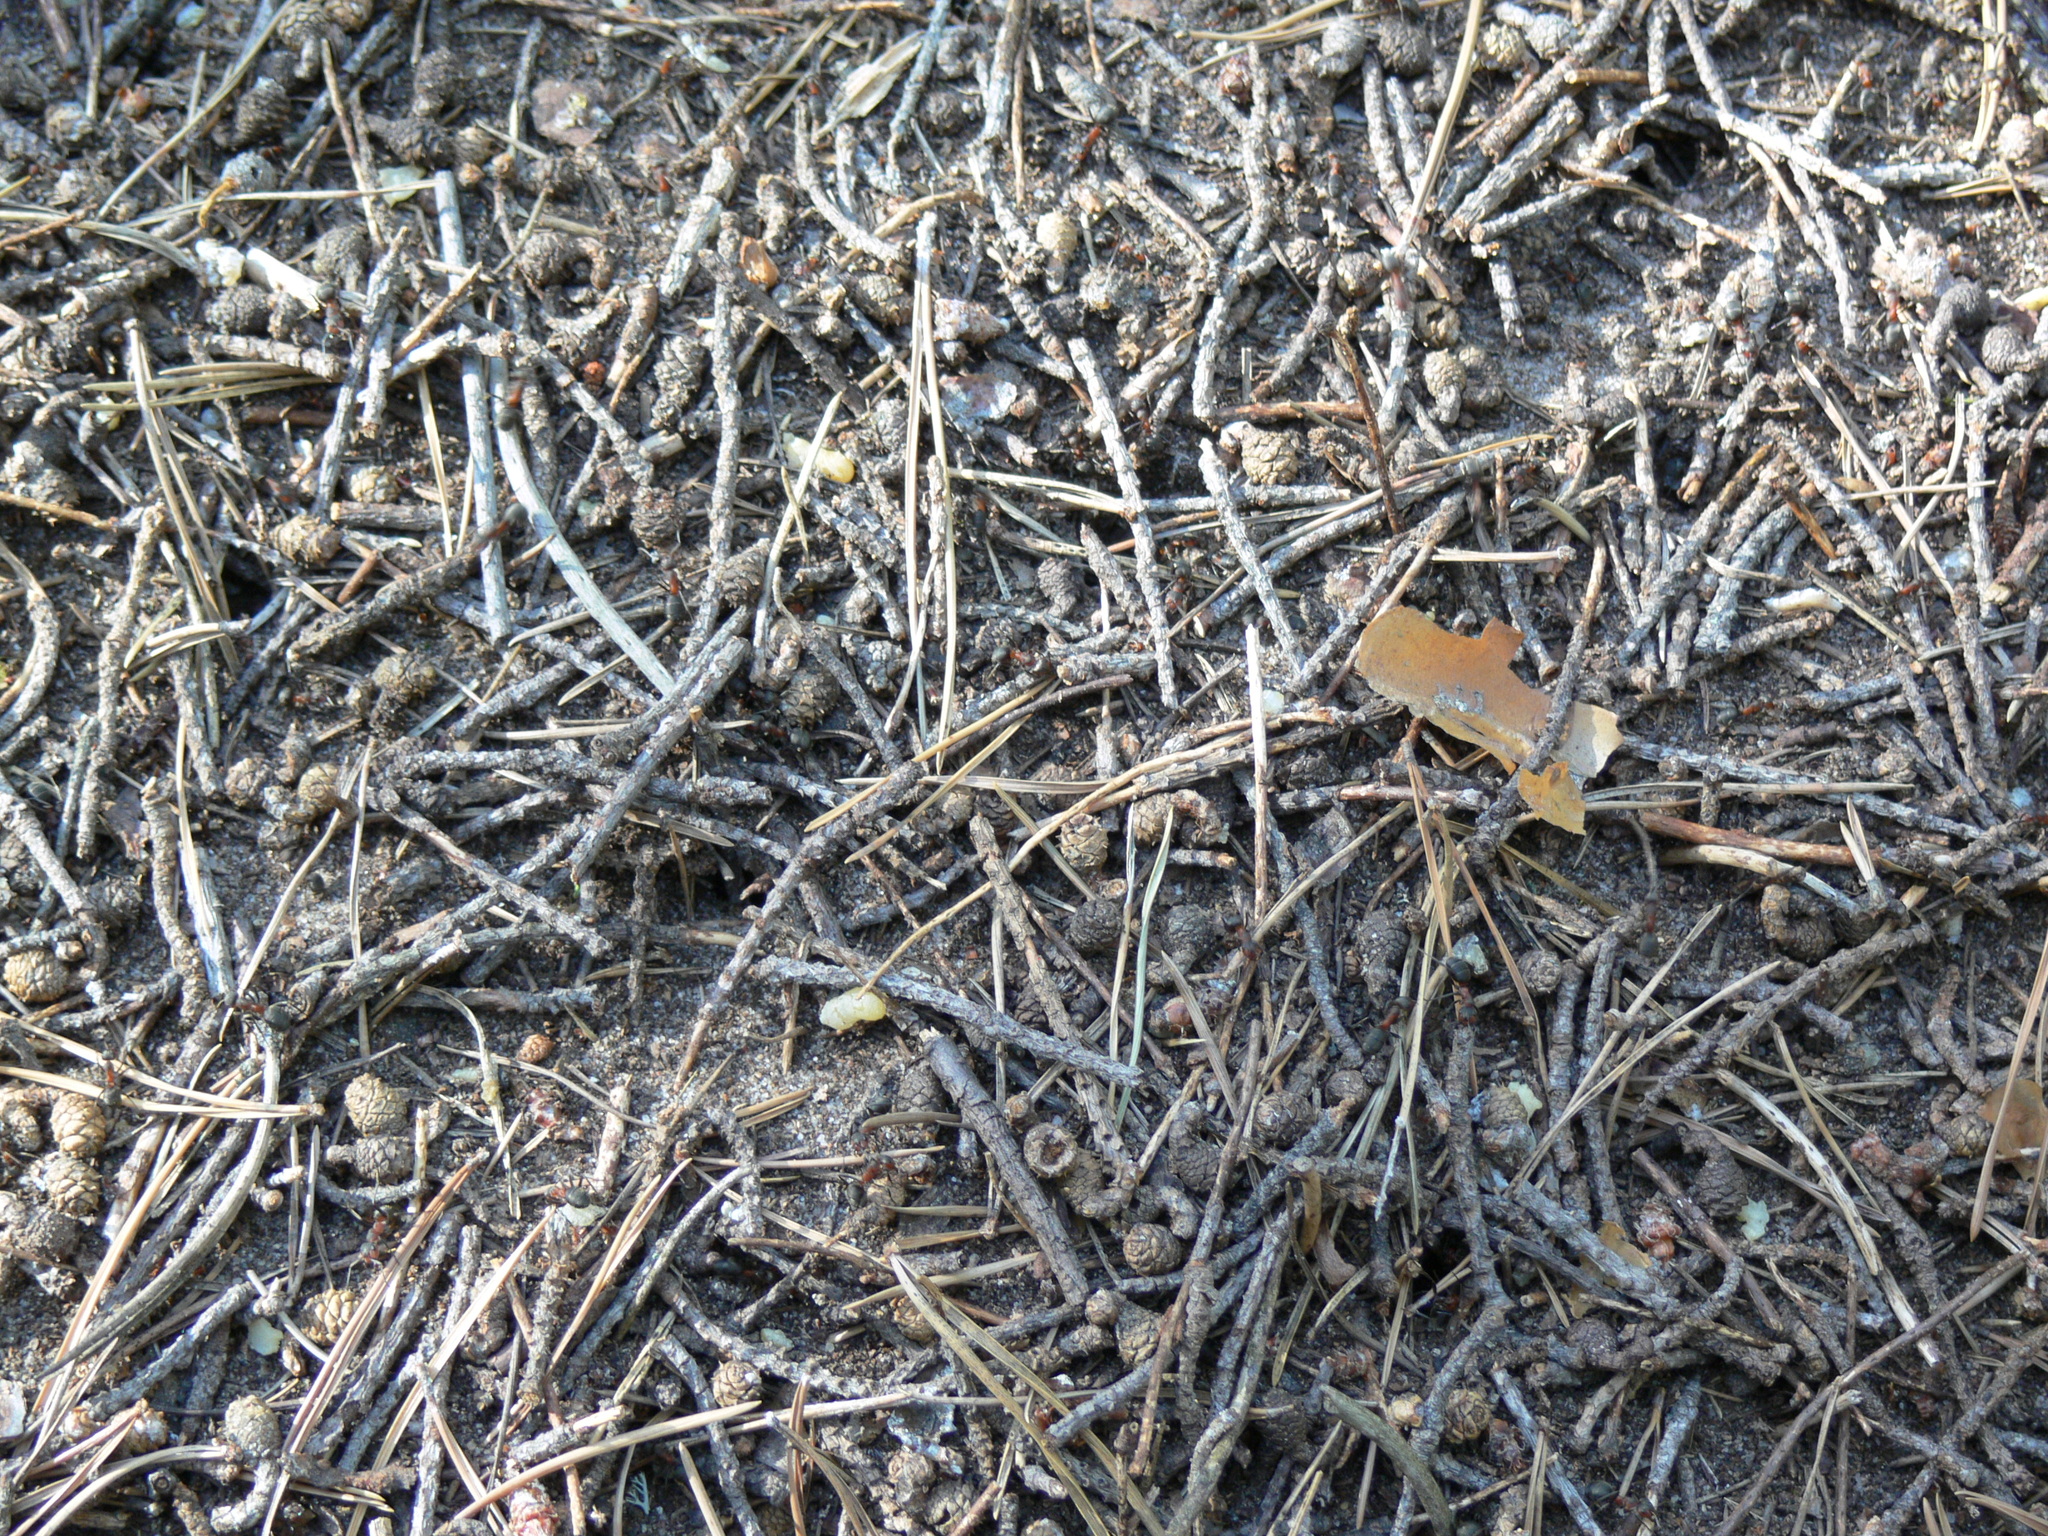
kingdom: Animalia
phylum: Arthropoda
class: Insecta
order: Hymenoptera
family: Formicidae
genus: Formica
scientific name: Formica rufa
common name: Red wood ant
